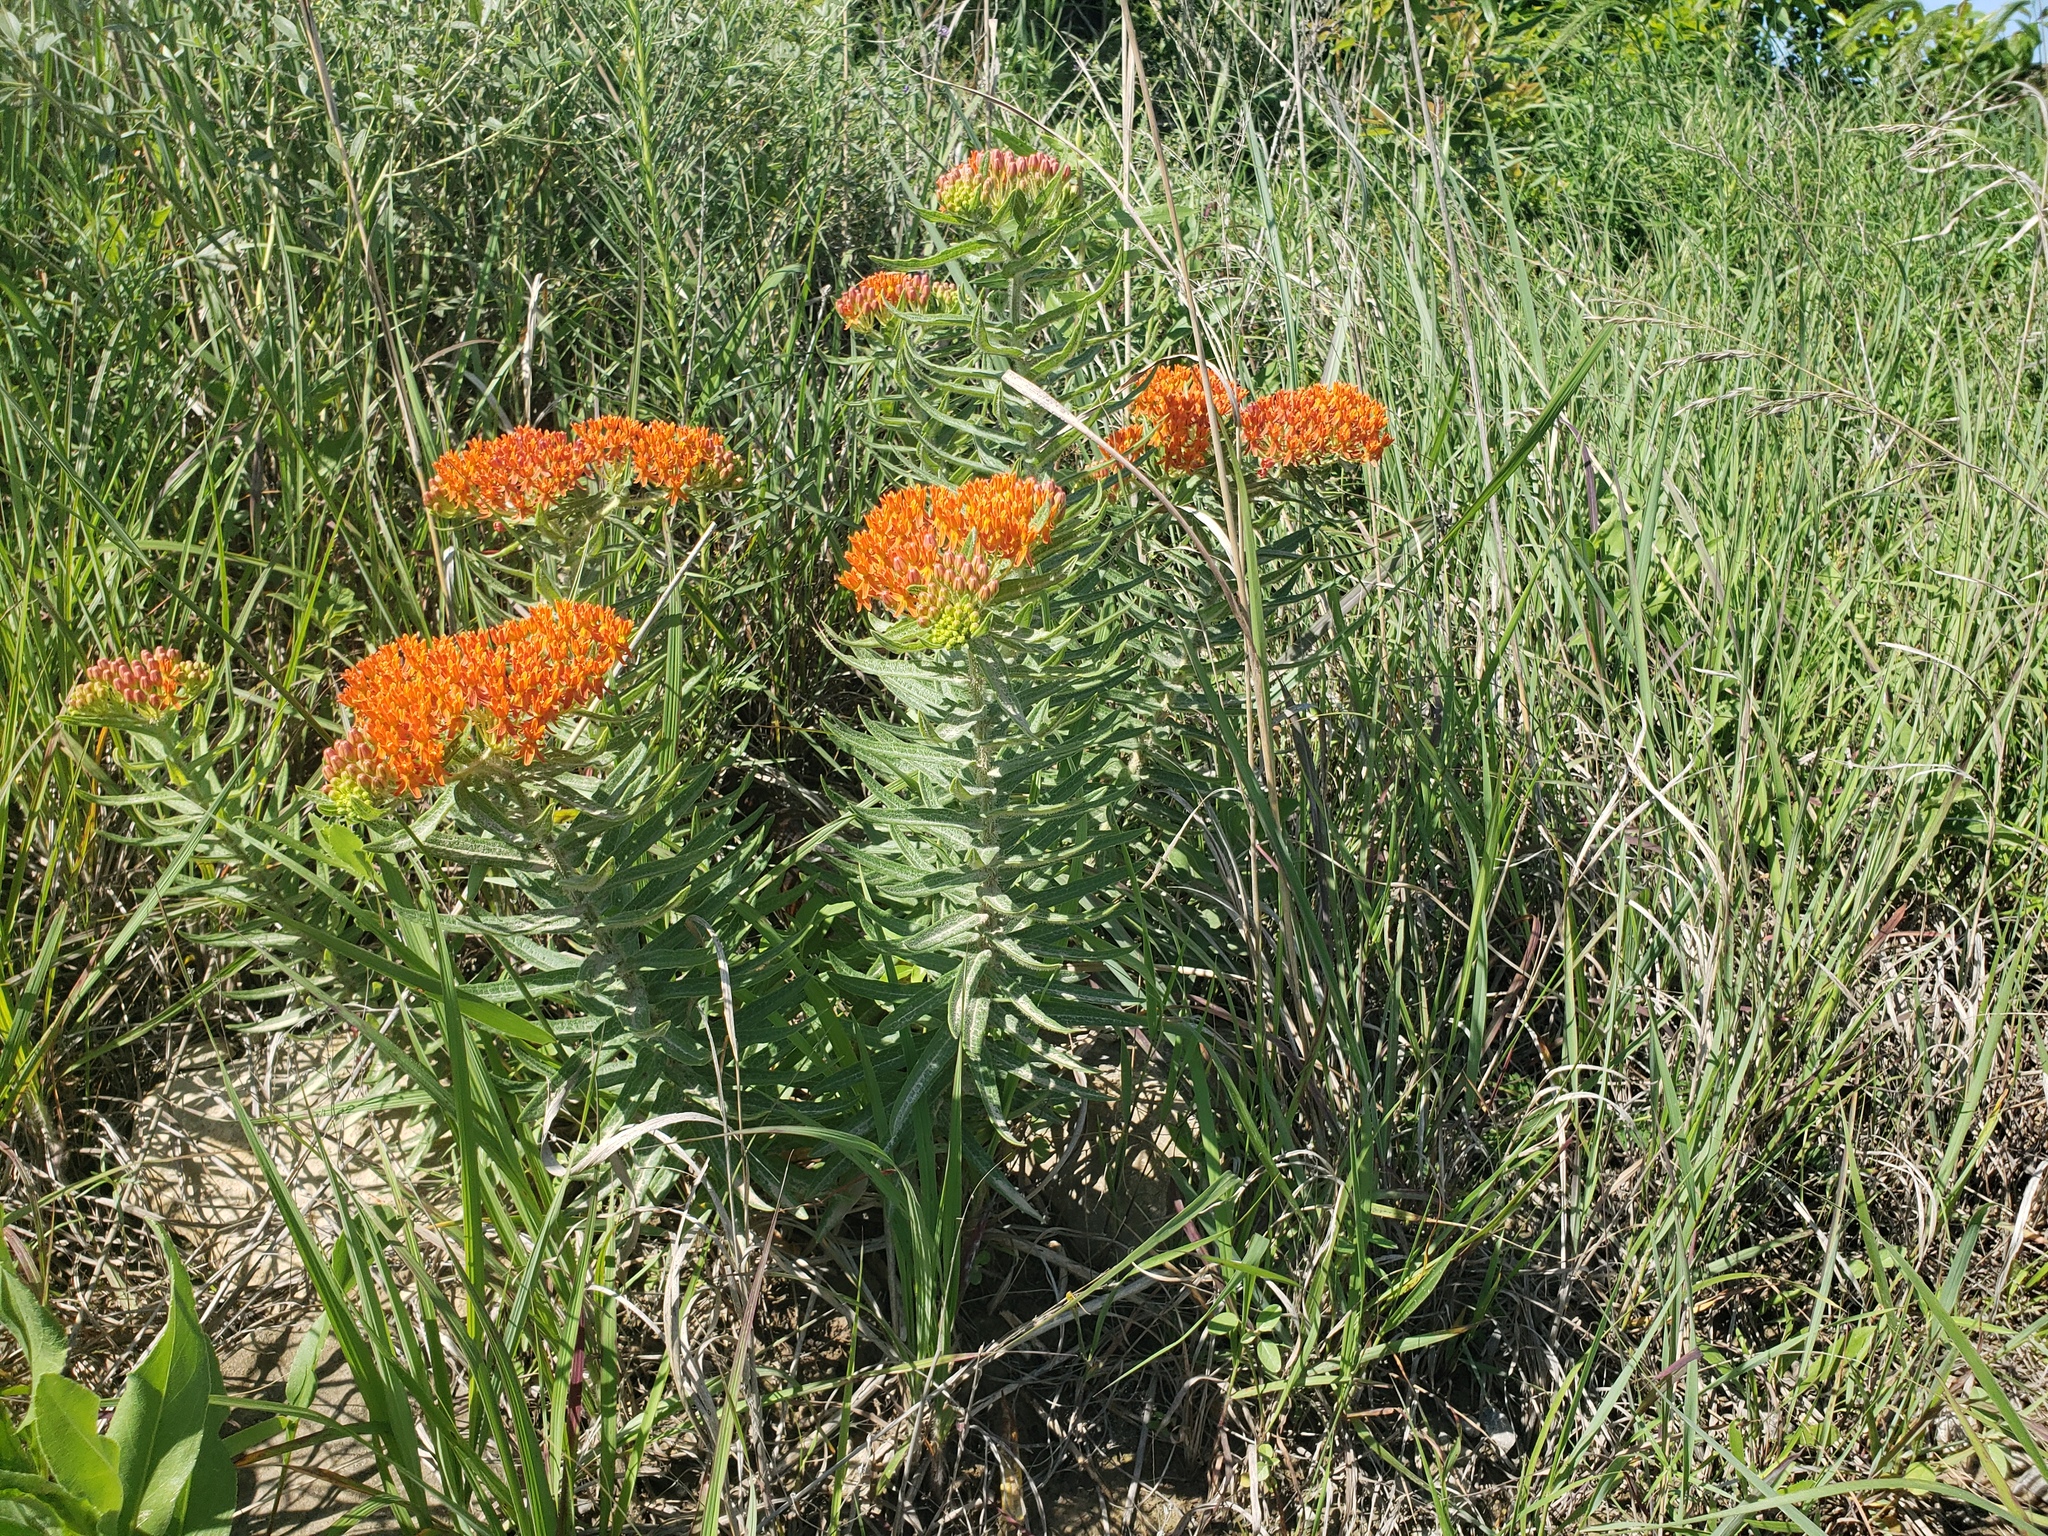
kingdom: Plantae
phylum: Tracheophyta
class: Magnoliopsida
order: Gentianales
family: Apocynaceae
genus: Asclepias
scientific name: Asclepias tuberosa
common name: Butterfly milkweed
